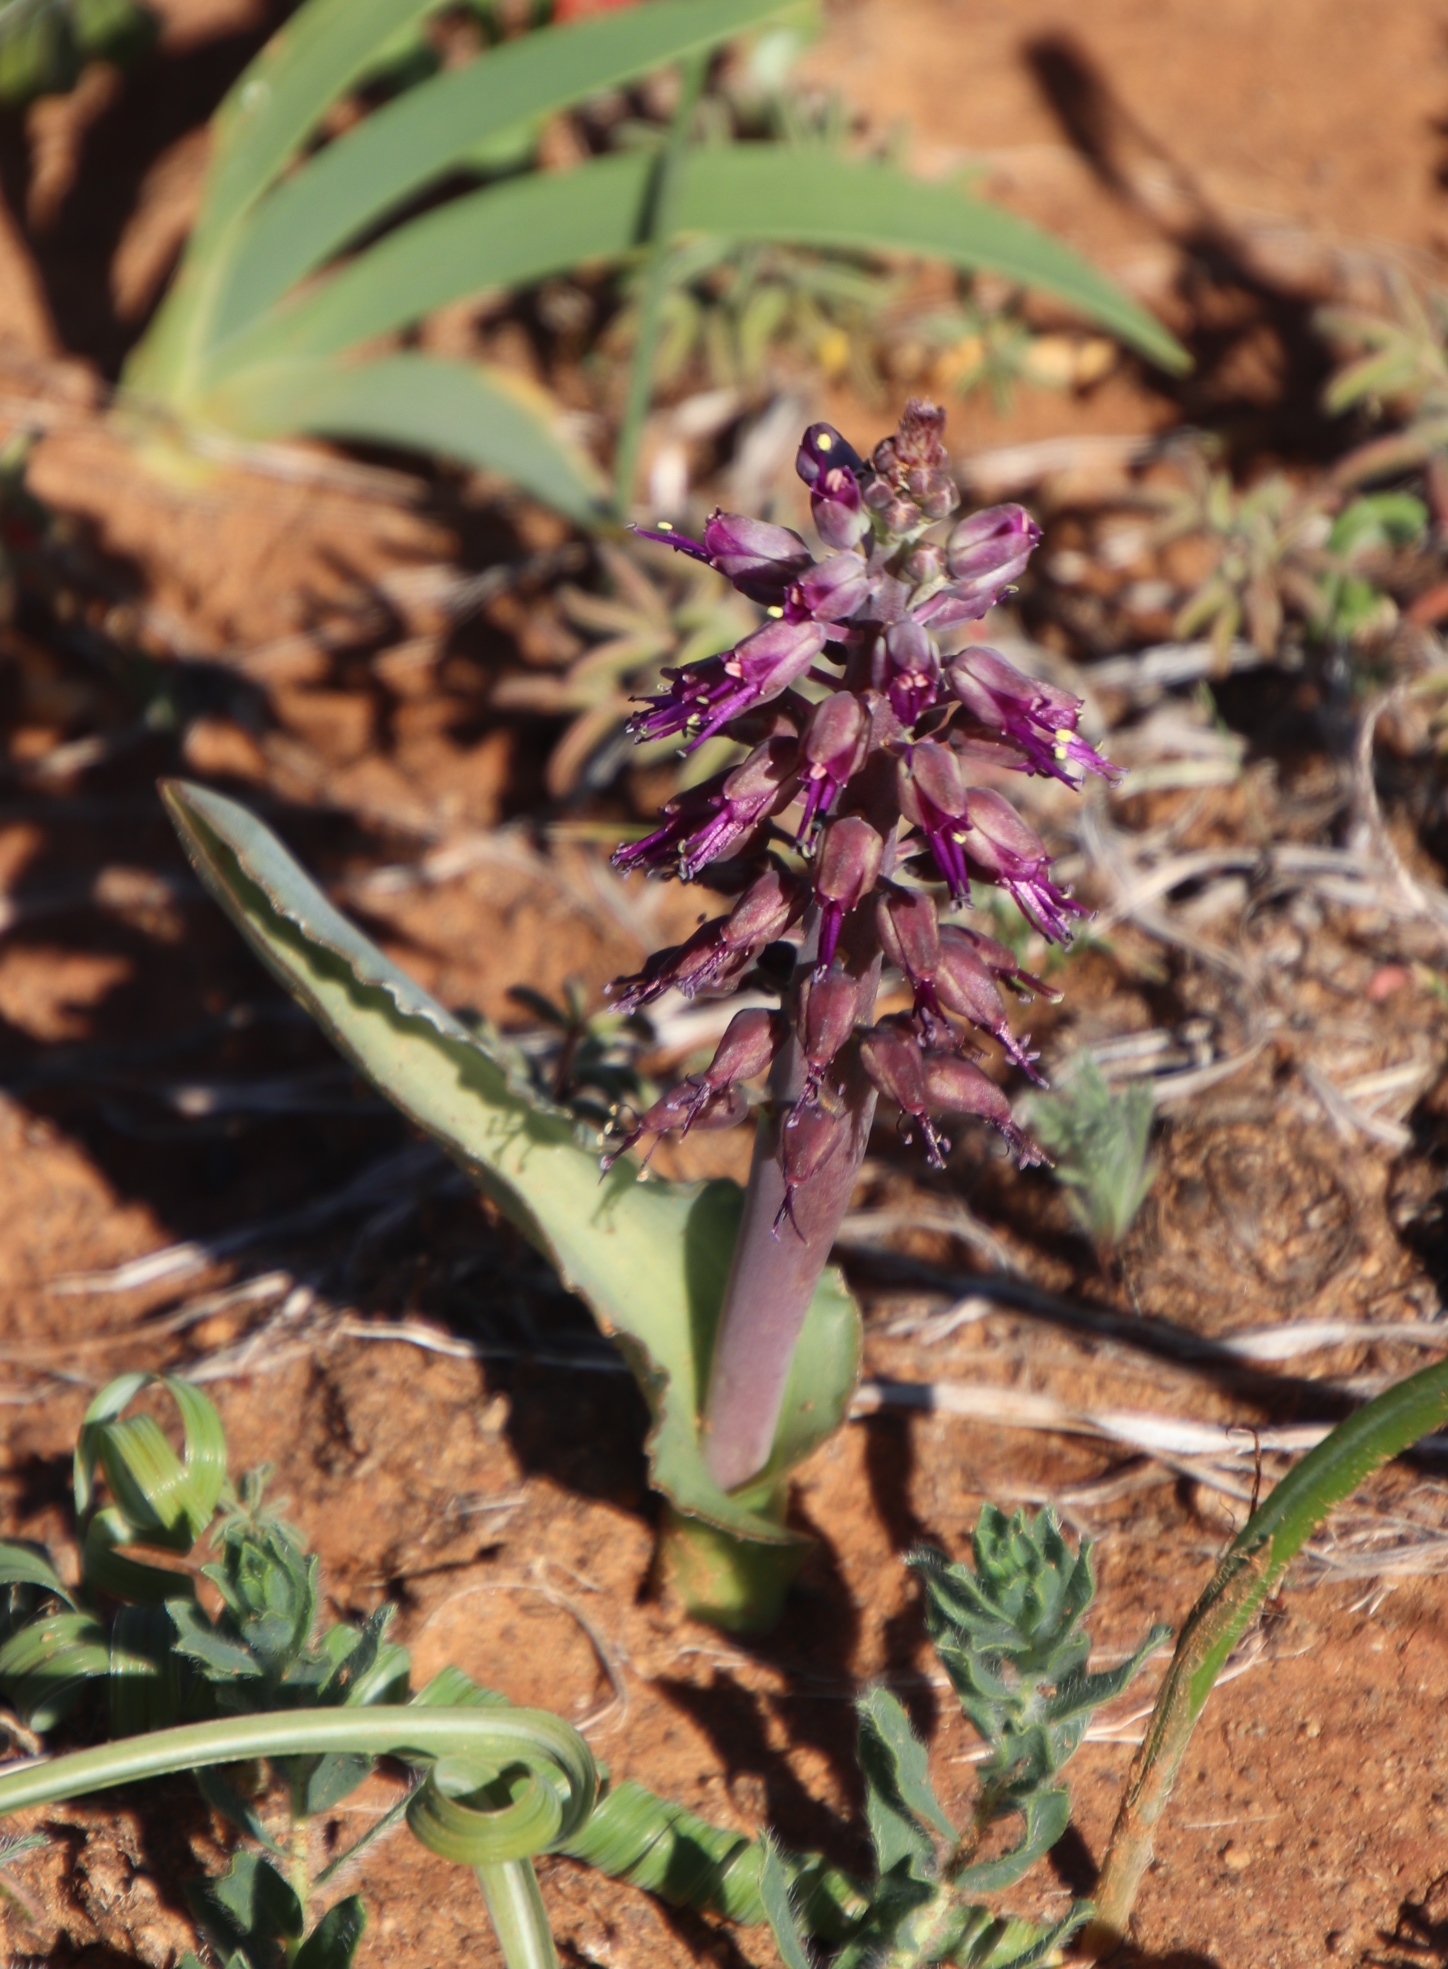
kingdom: Plantae
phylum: Tracheophyta
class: Liliopsida
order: Asparagales
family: Asparagaceae
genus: Lachenalia
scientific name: Lachenalia violacea
